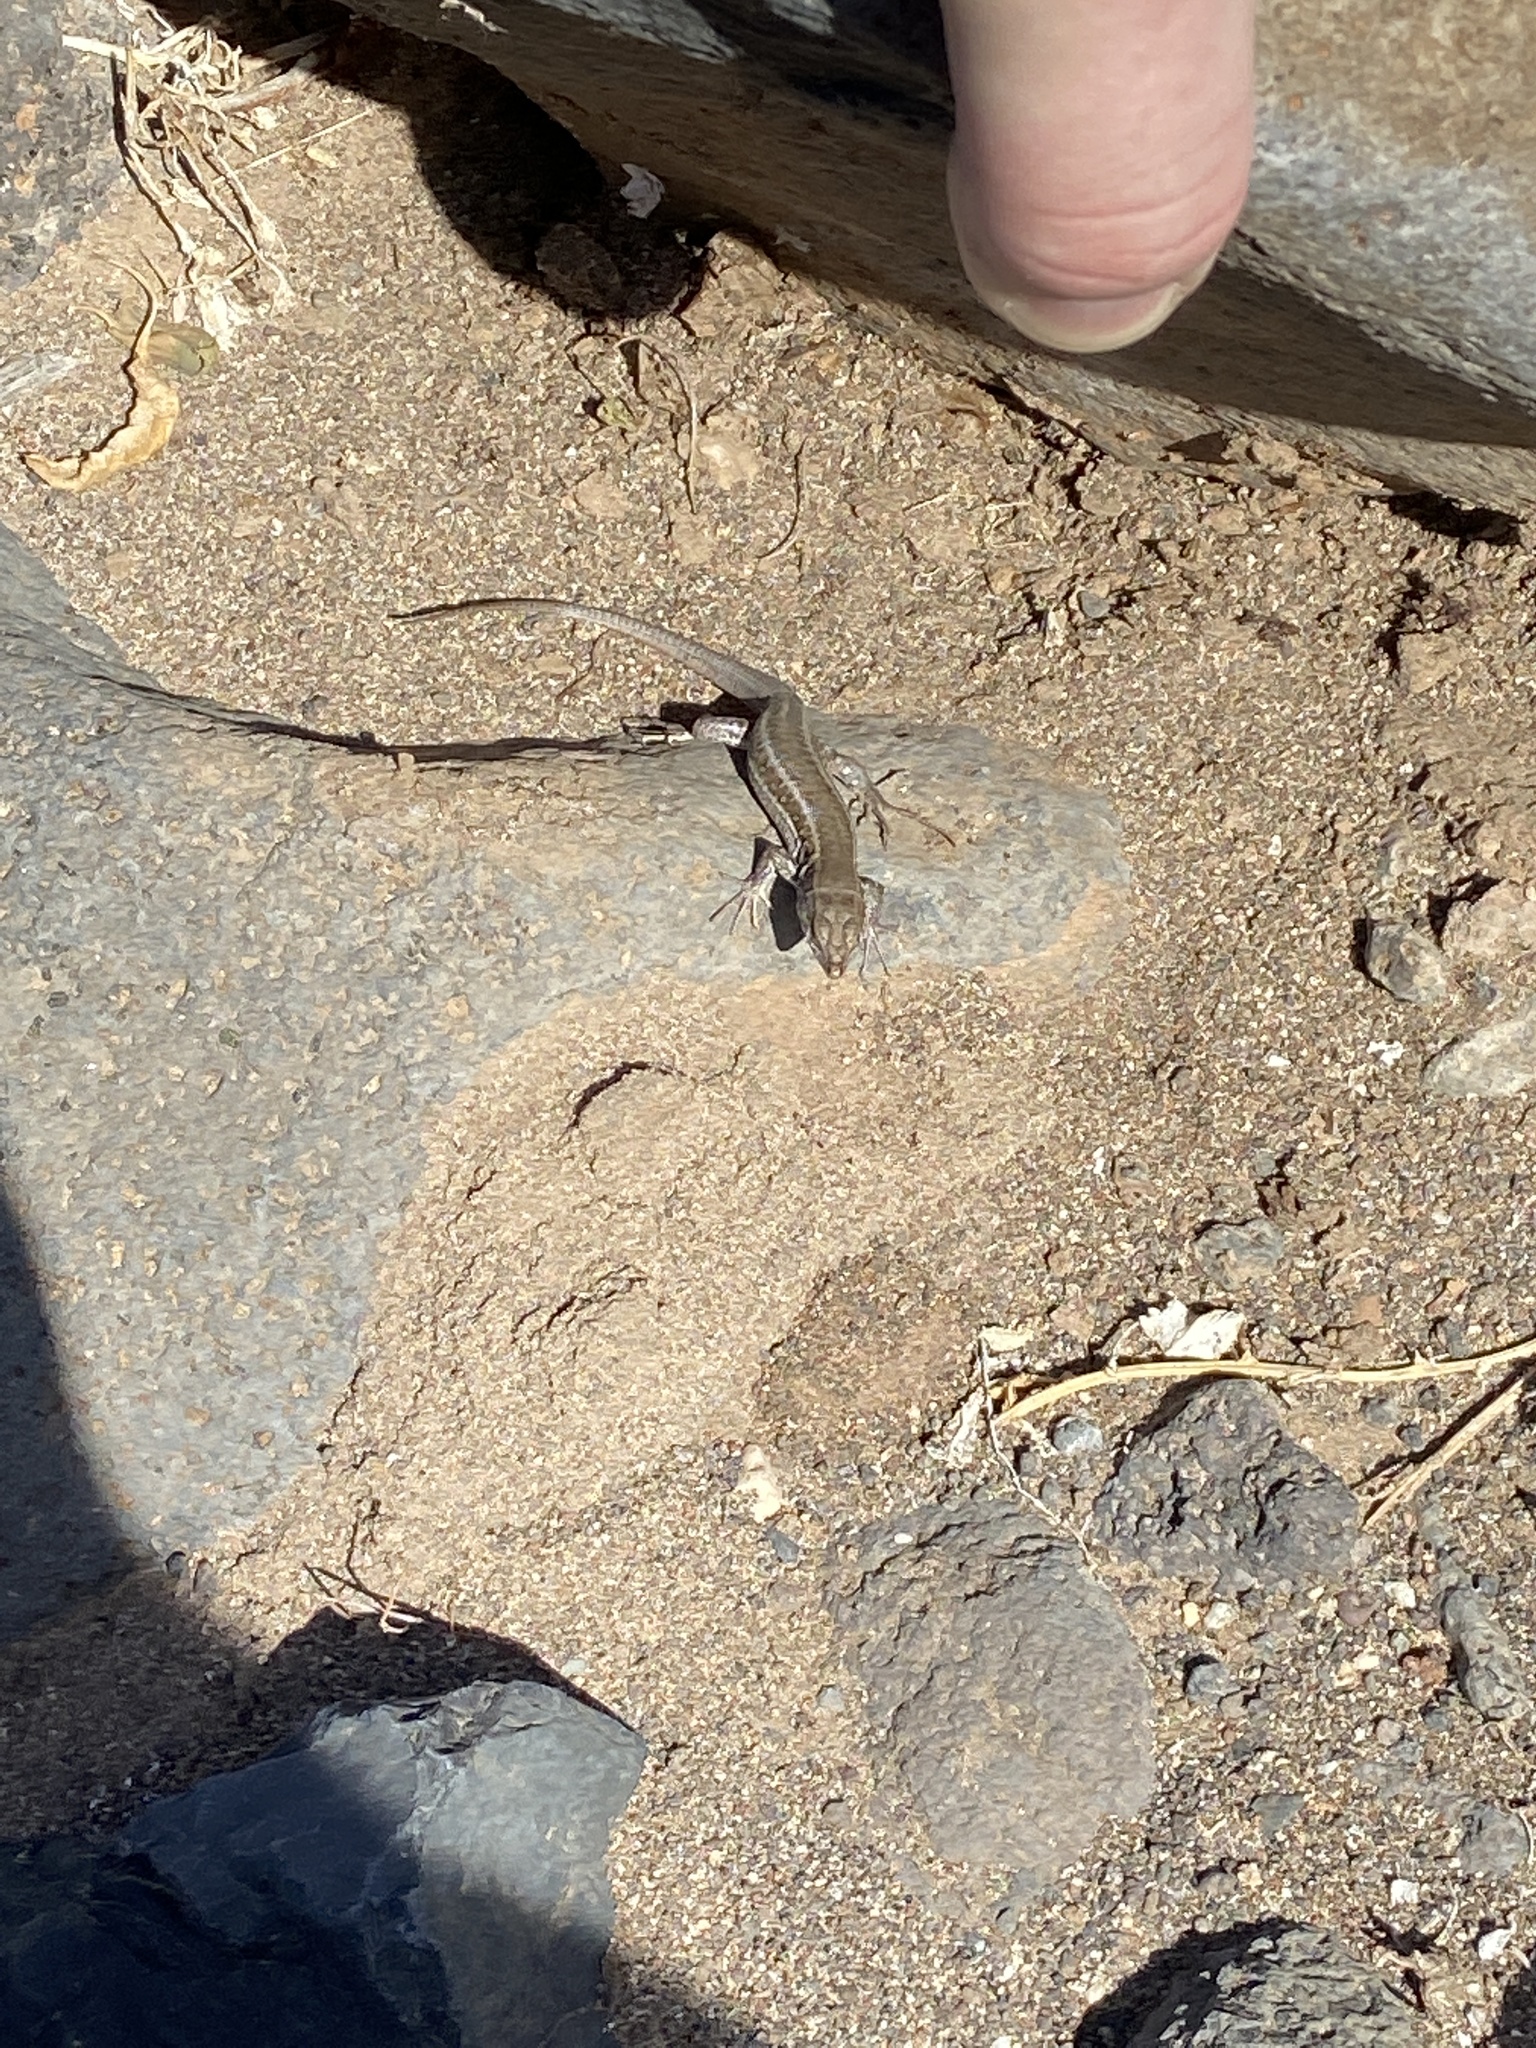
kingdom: Animalia
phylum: Chordata
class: Squamata
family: Lacertidae
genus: Gallotia
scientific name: Gallotia atlantica
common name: Atlantic lizard
